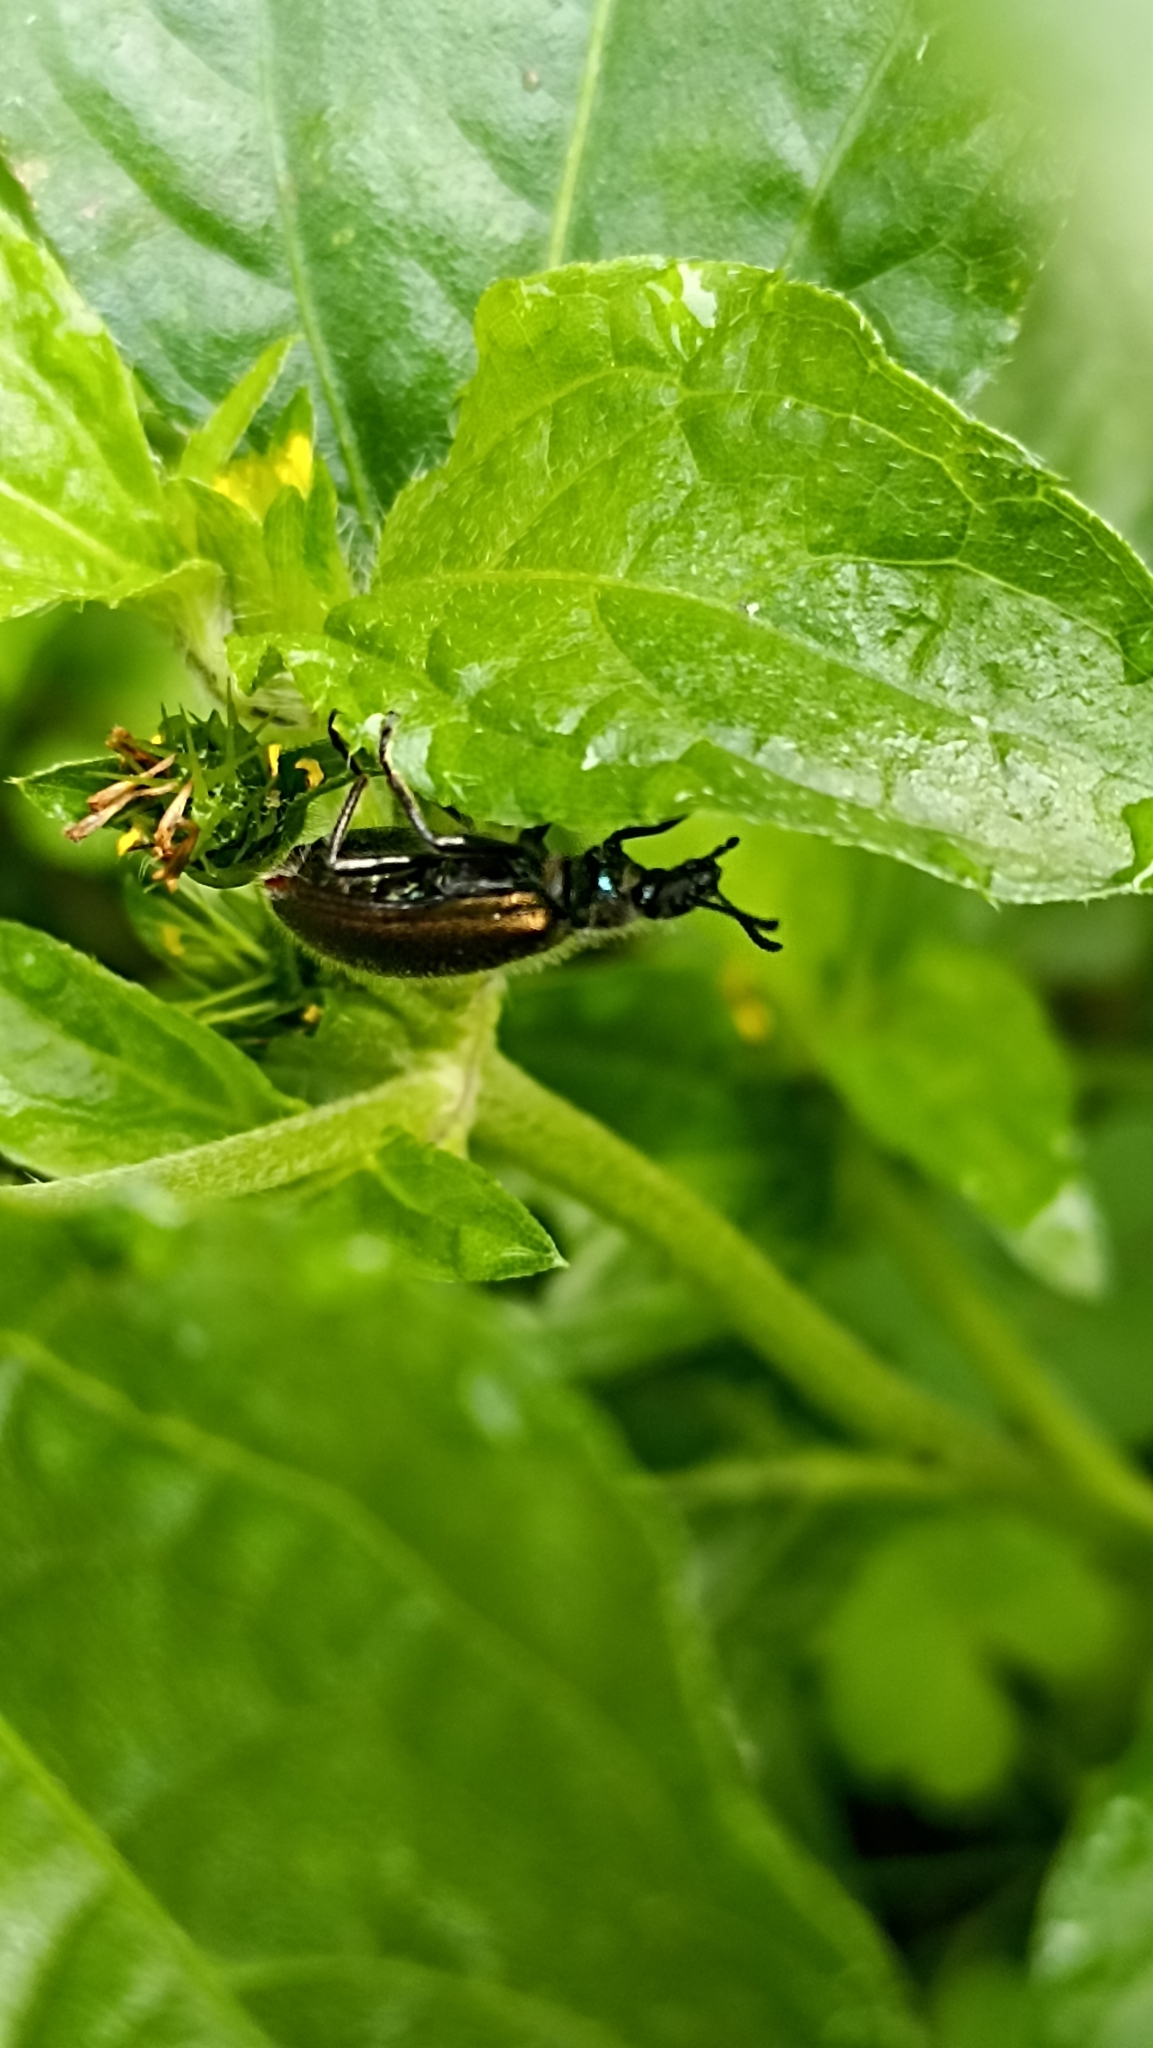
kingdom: Animalia
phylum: Arthropoda
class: Insecta
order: Coleoptera
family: Tenebrionidae
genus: Lagria
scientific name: Lagria villosa
